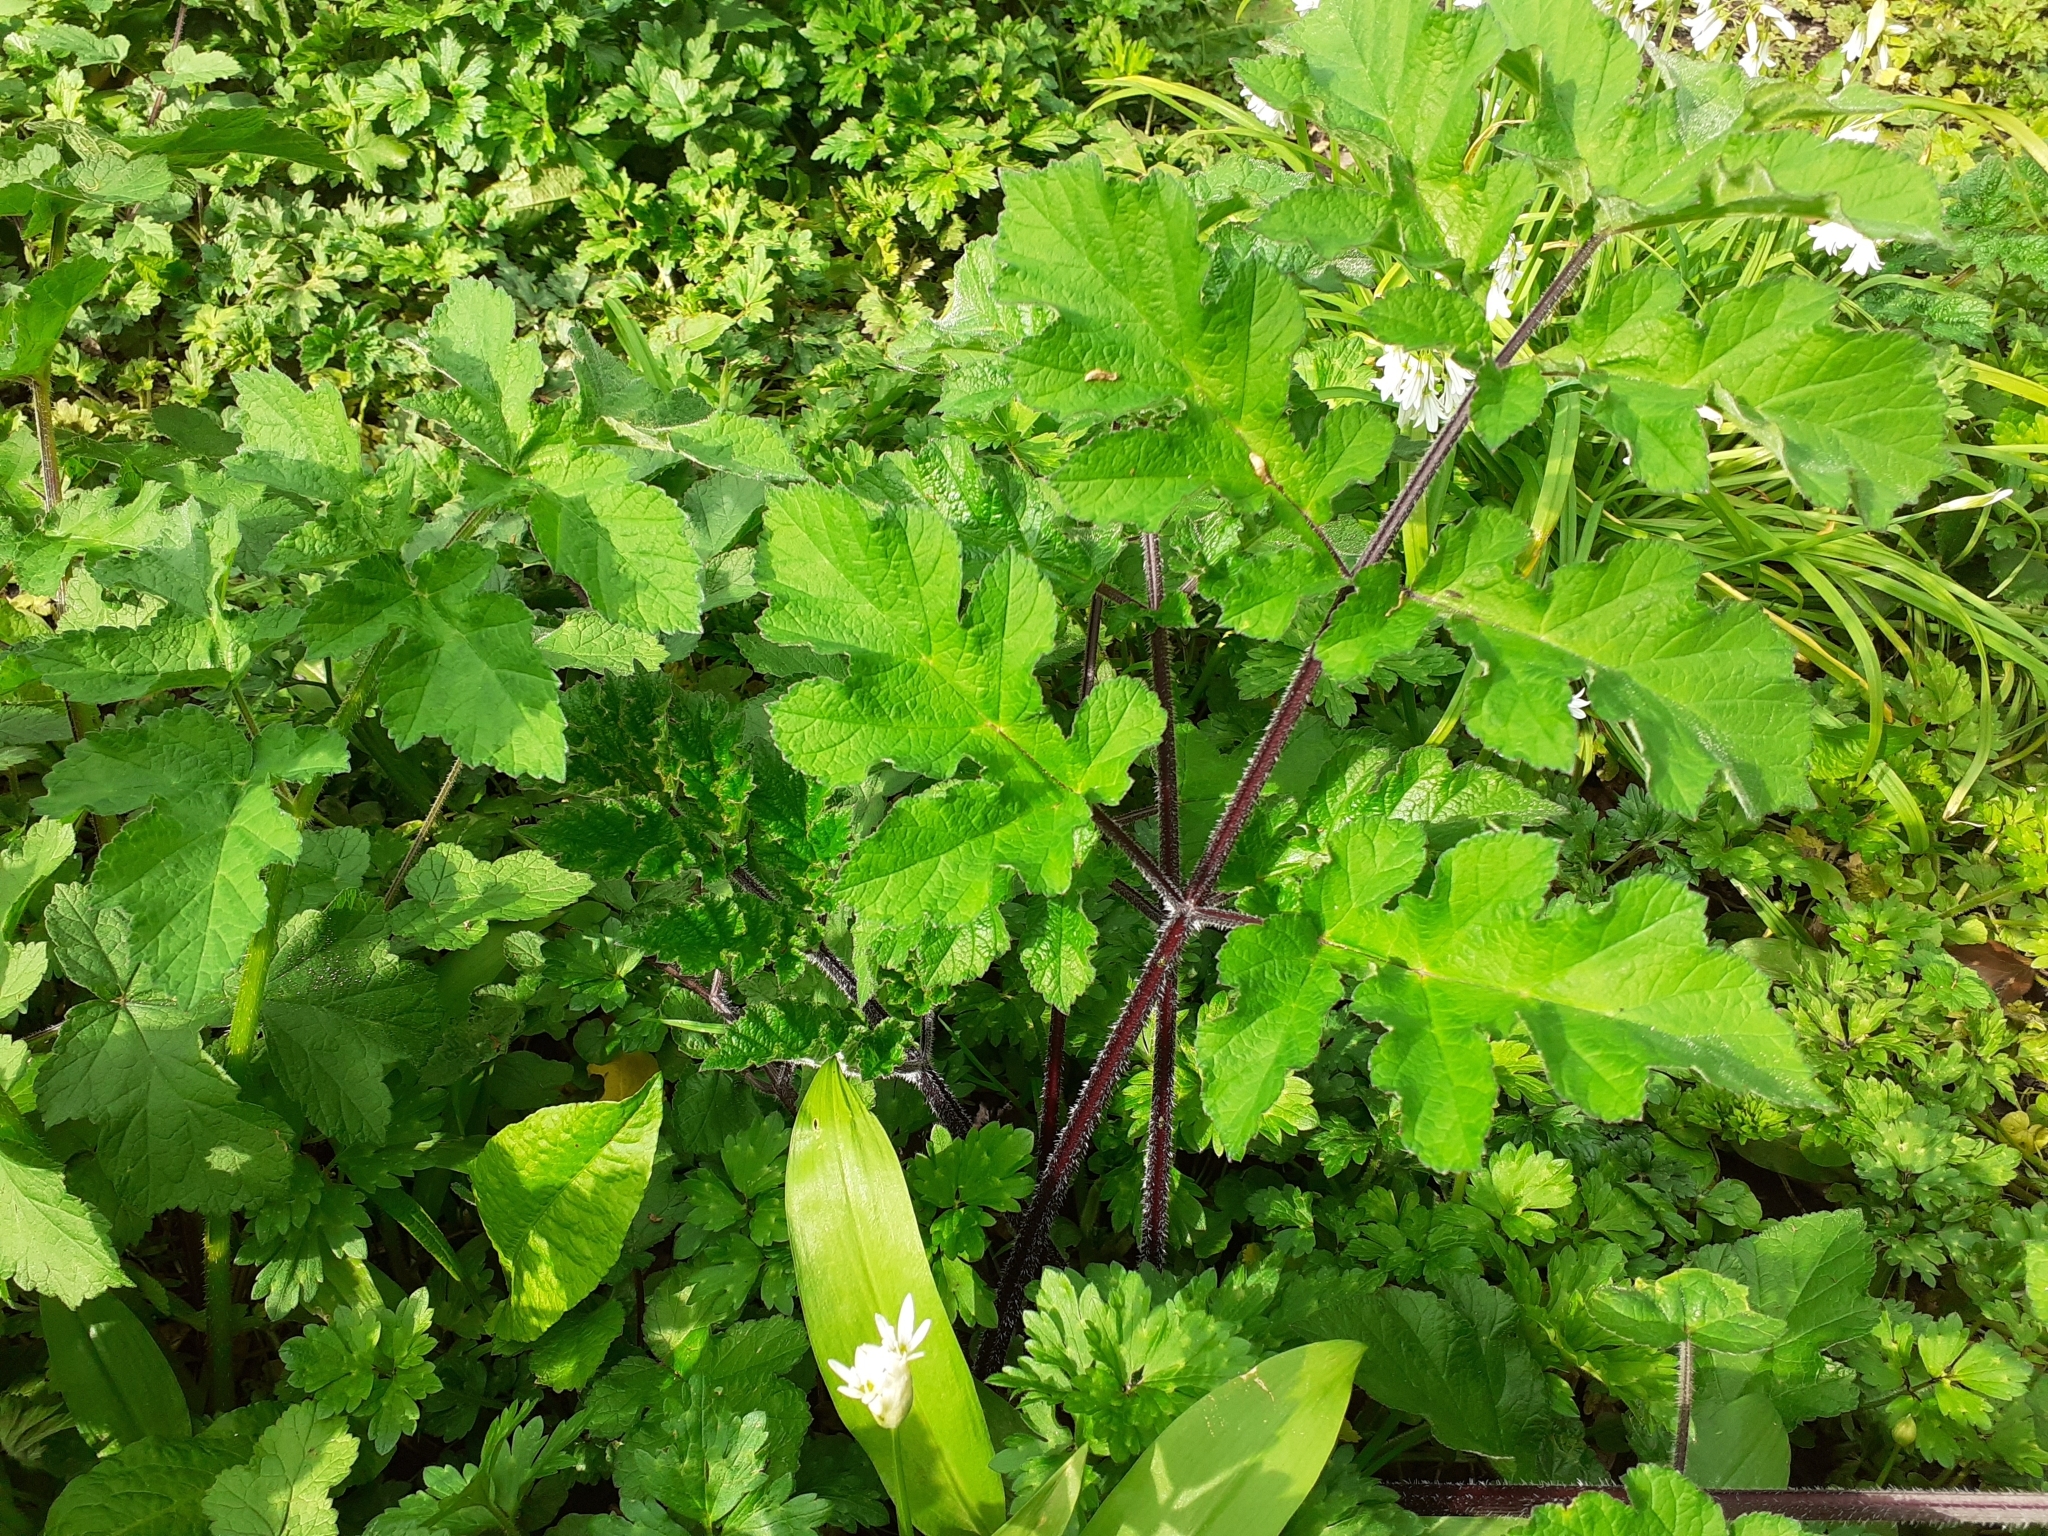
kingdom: Plantae
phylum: Tracheophyta
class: Magnoliopsida
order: Apiales
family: Apiaceae
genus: Heracleum
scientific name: Heracleum sphondylium
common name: Hogweed
